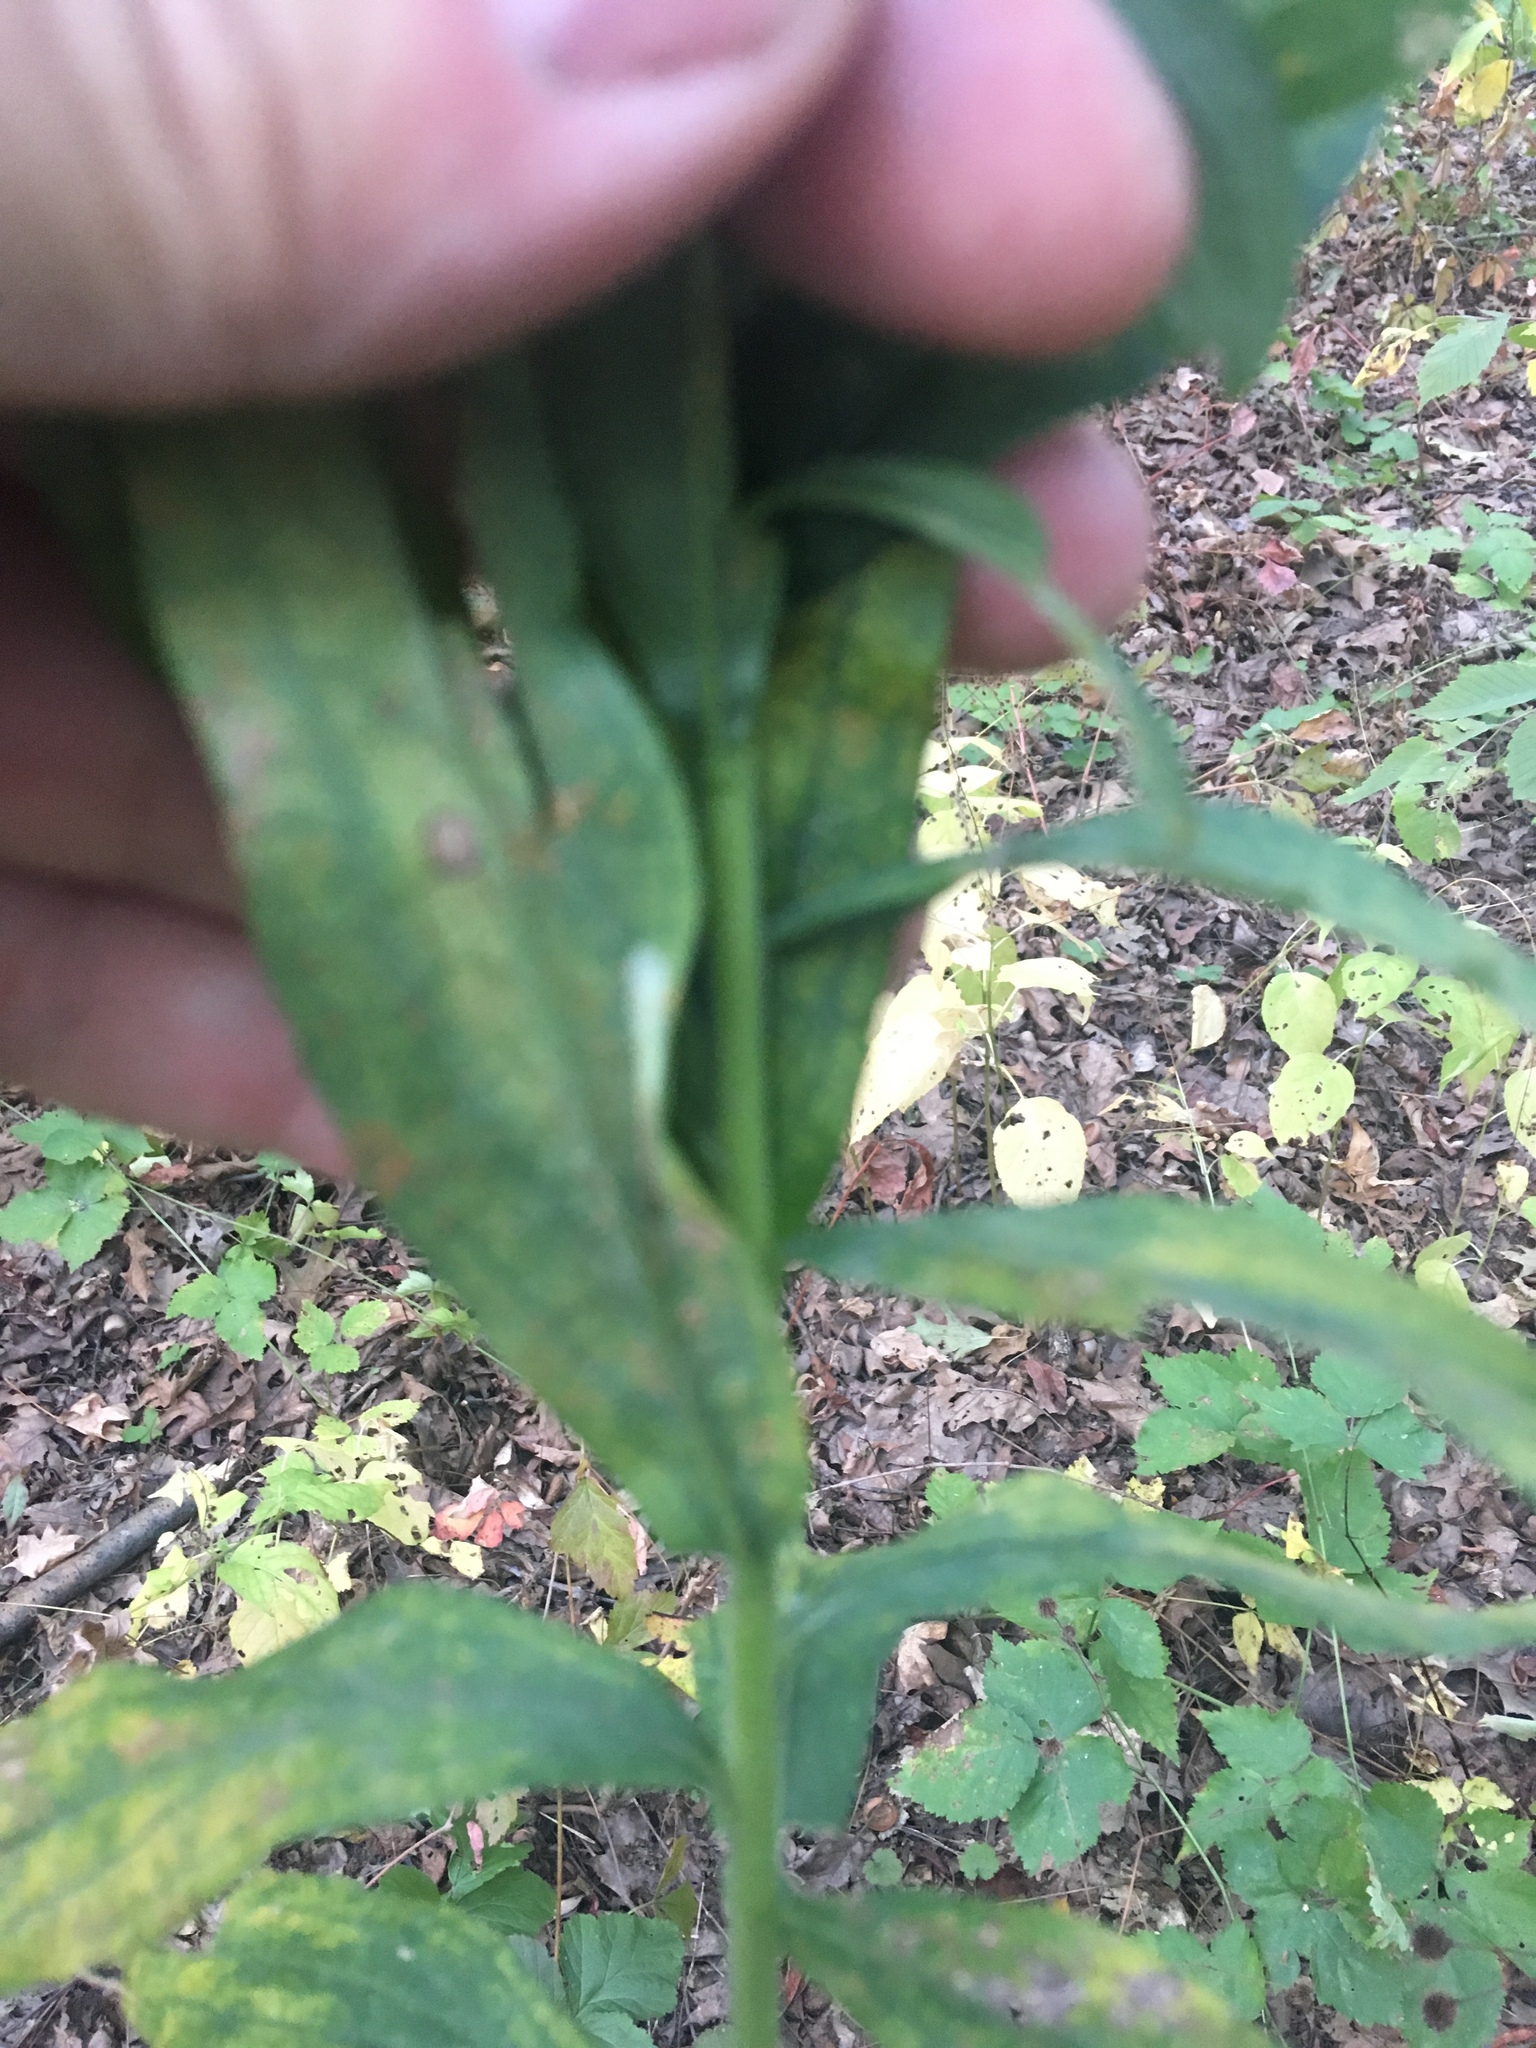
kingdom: Plantae
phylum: Tracheophyta
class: Magnoliopsida
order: Asterales
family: Asteraceae
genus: Solidago
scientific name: Solidago rugosa
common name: Rough-stemmed goldenrod
